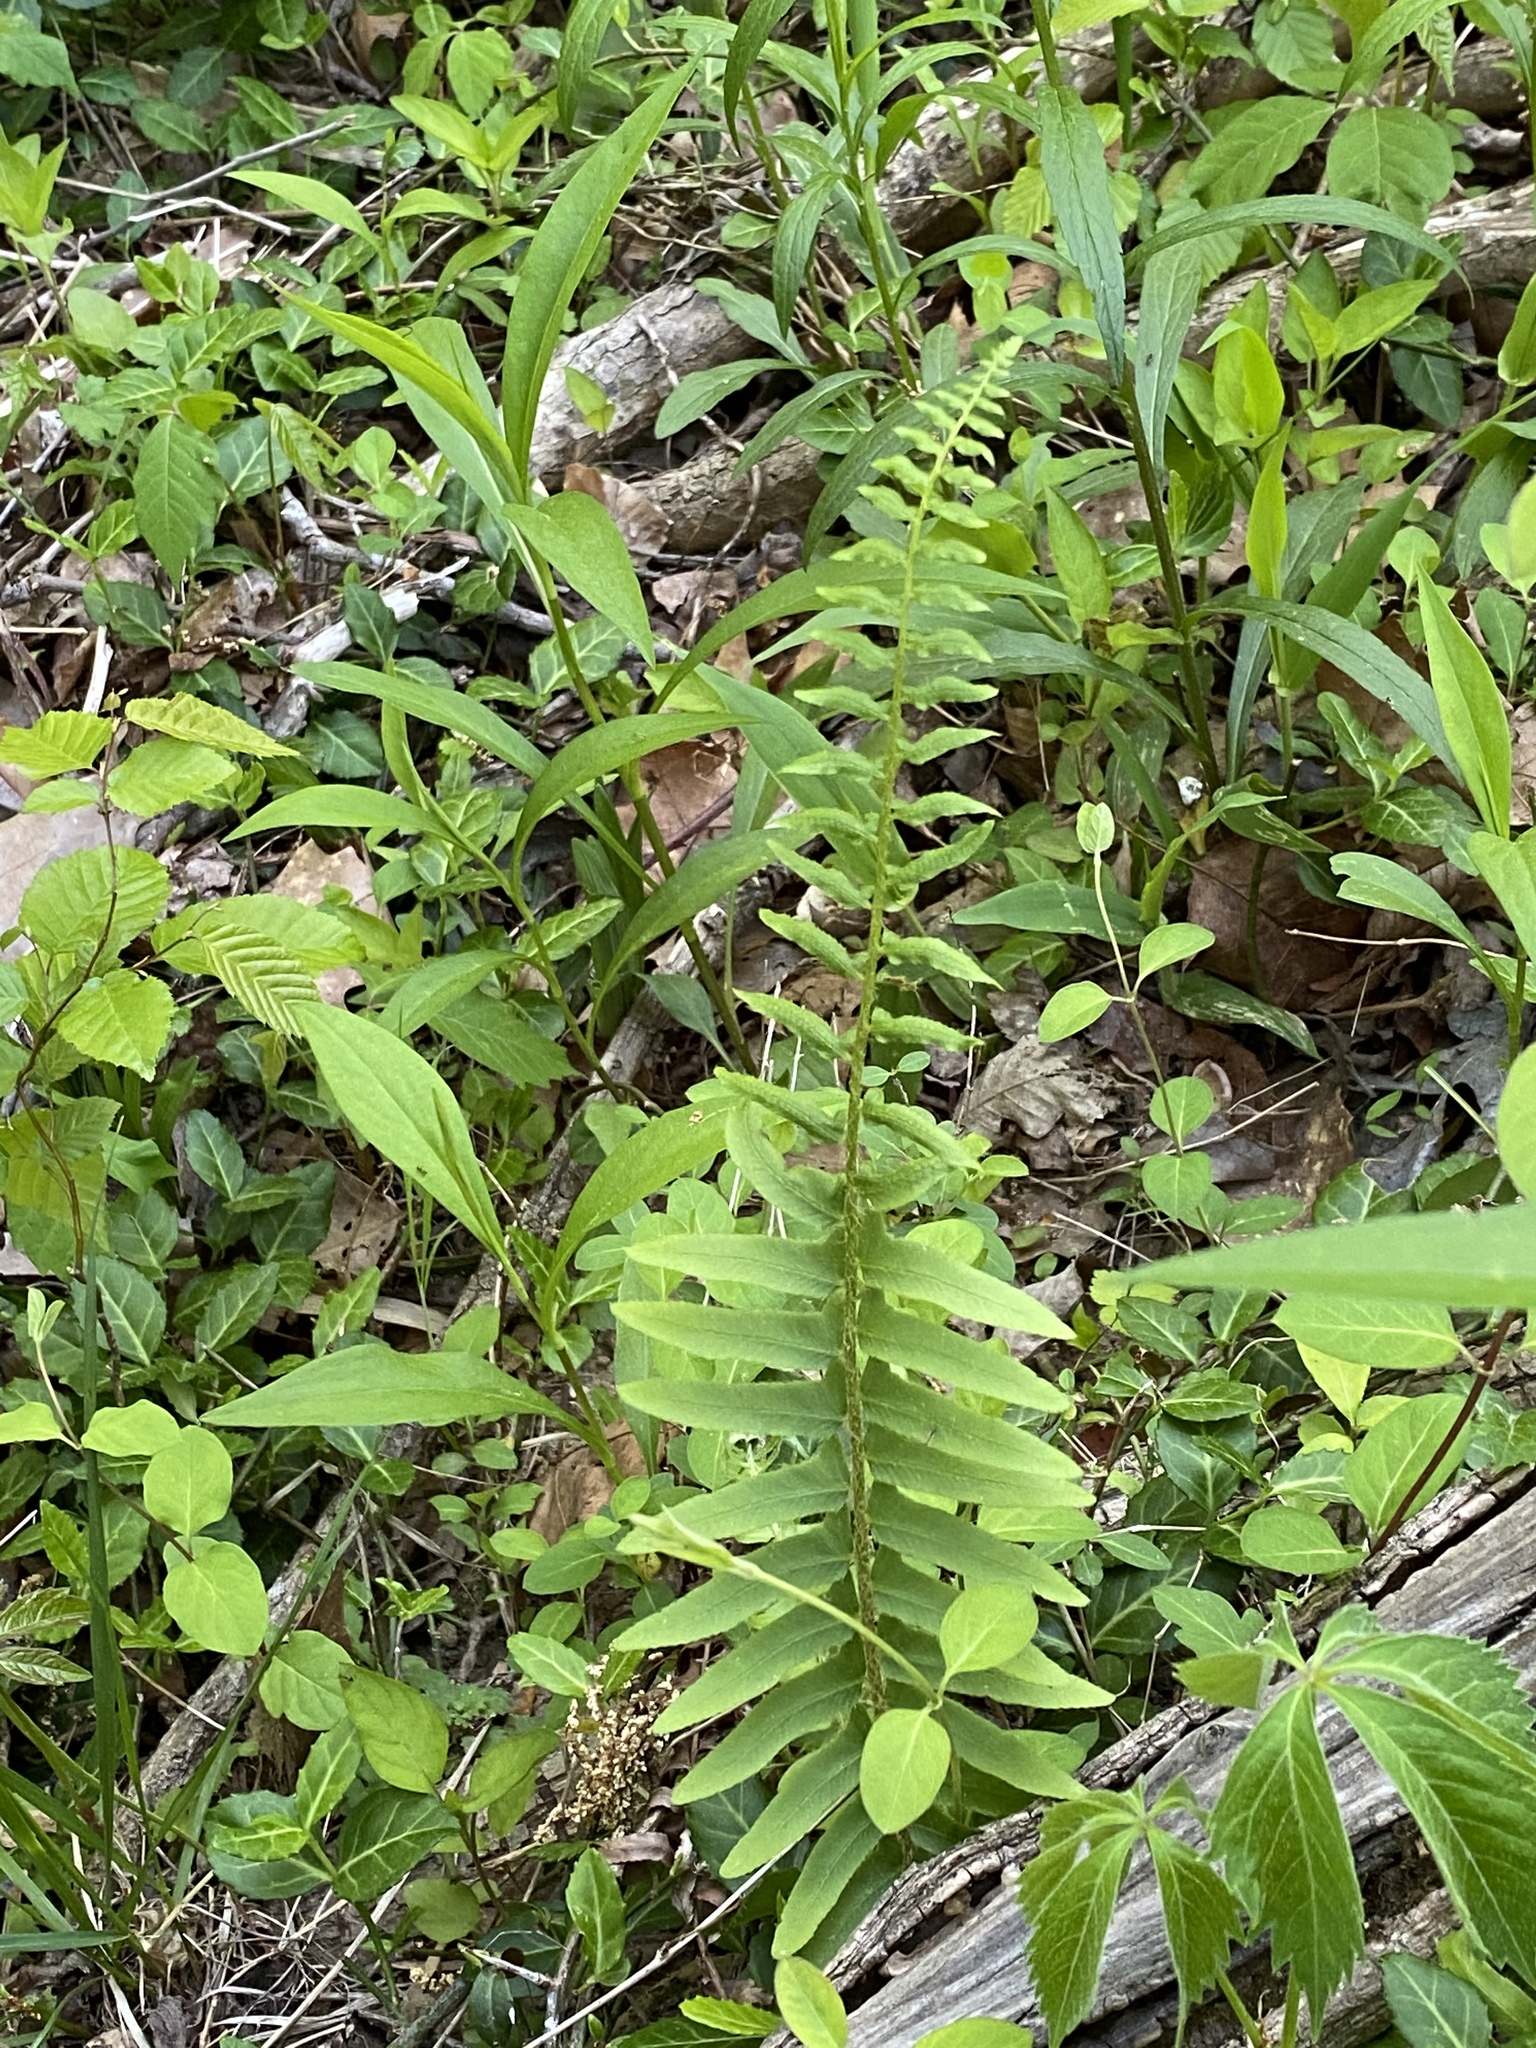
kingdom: Plantae
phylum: Tracheophyta
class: Polypodiopsida
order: Polypodiales
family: Dryopteridaceae
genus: Polystichum
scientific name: Polystichum acrostichoides
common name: Christmas fern
